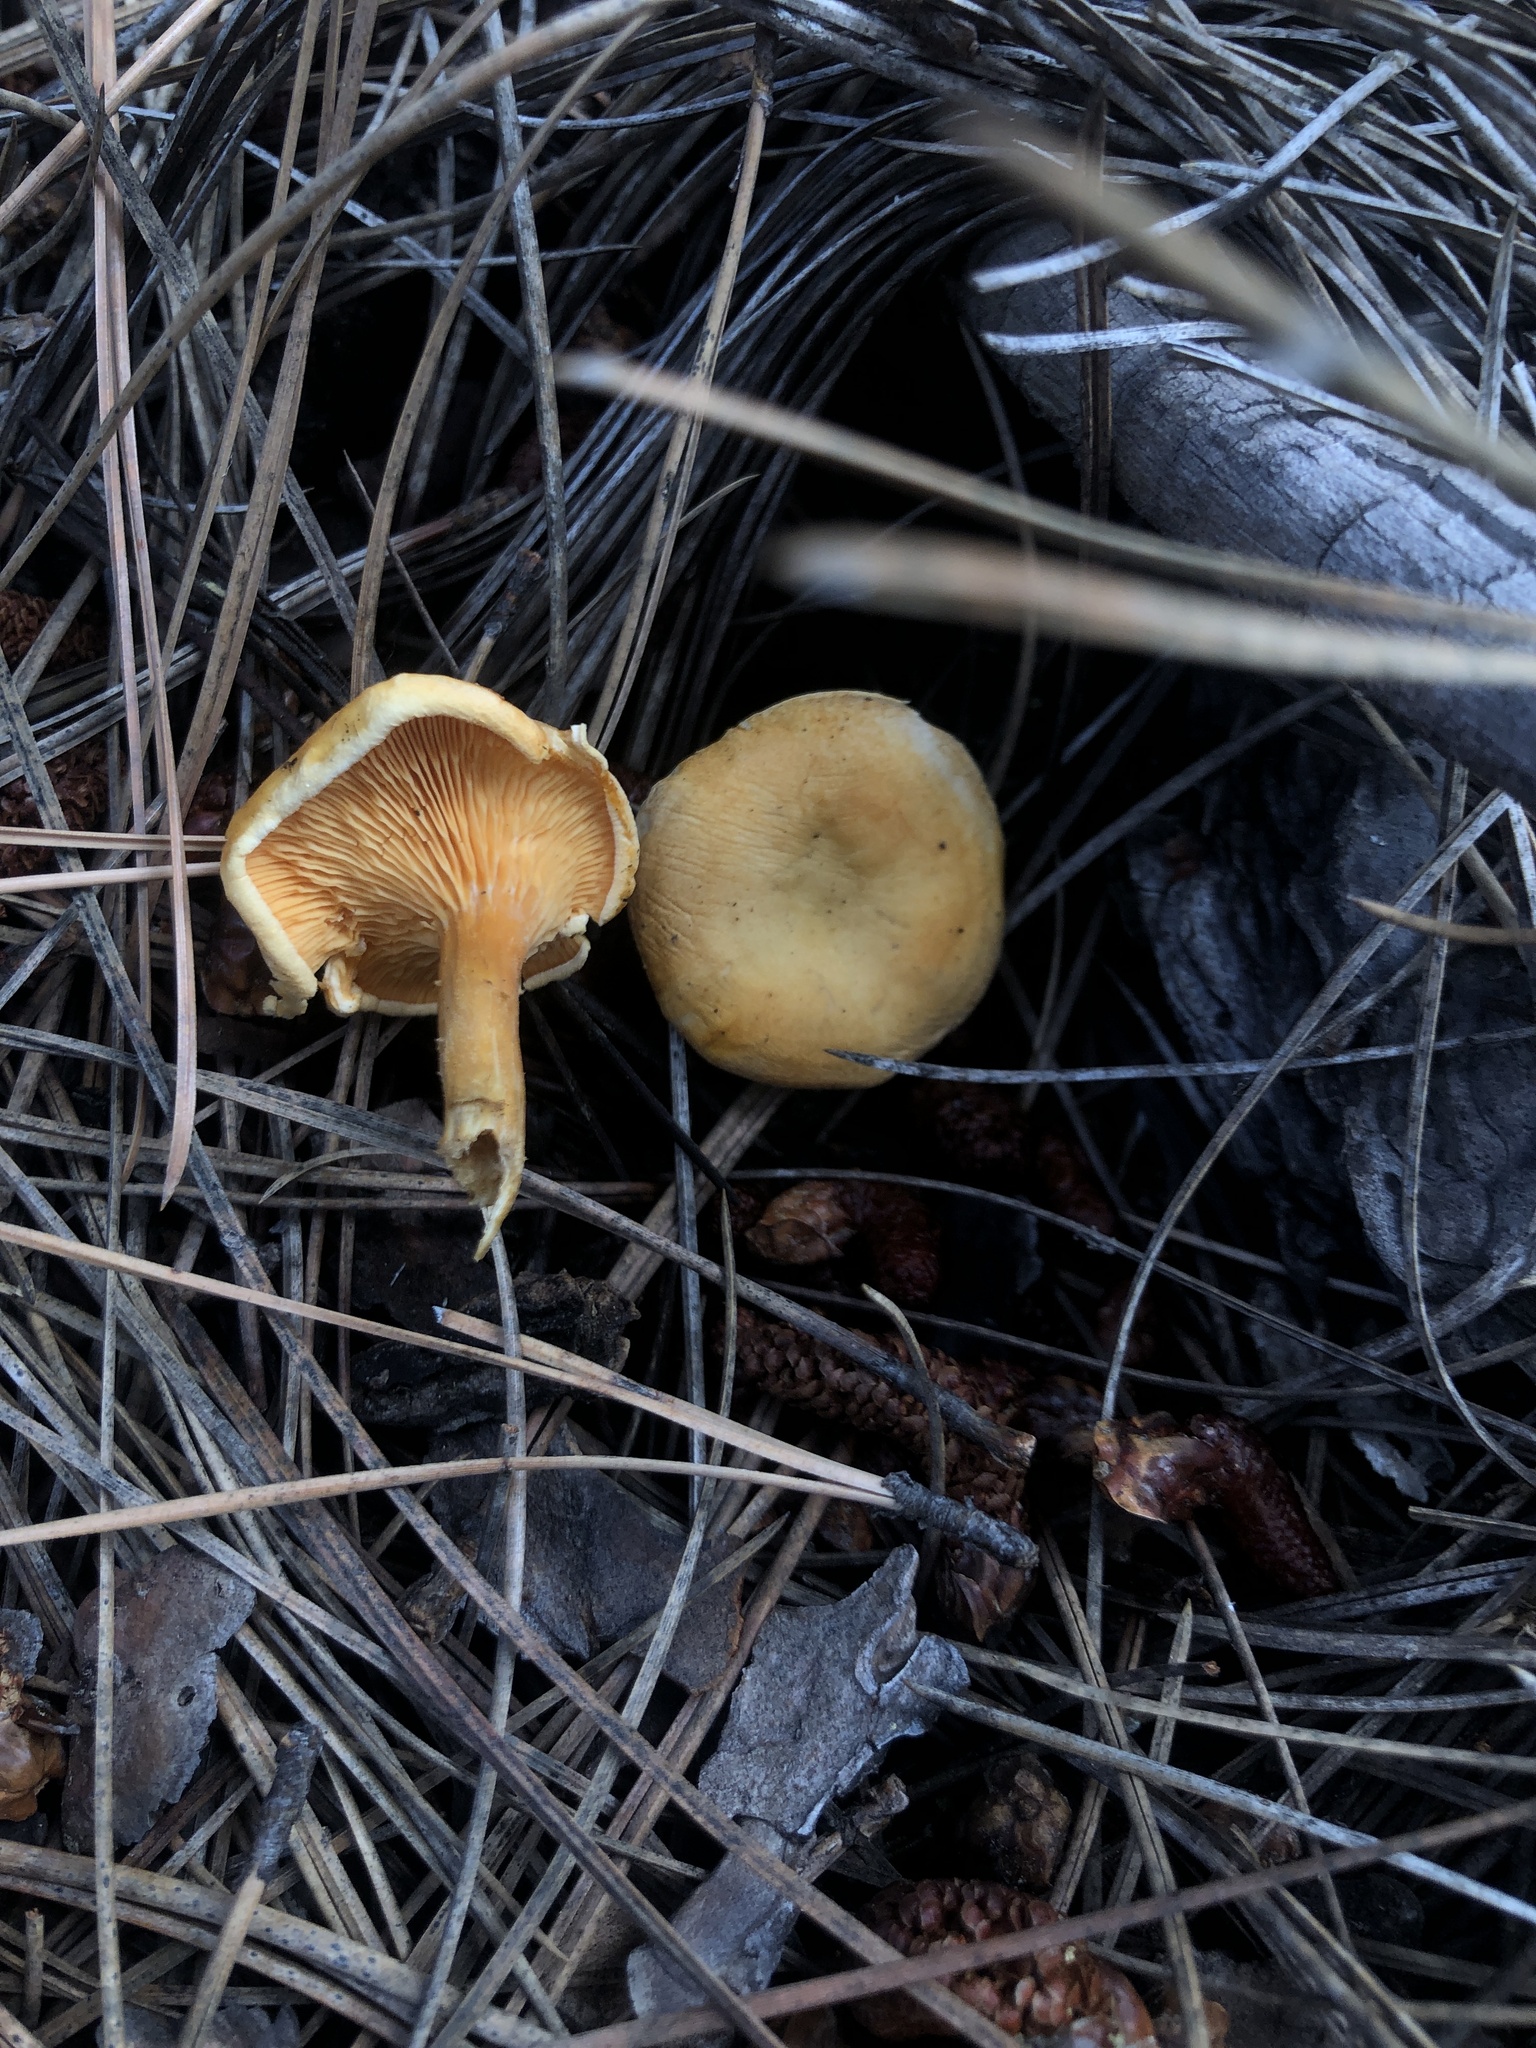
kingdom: Fungi
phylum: Basidiomycota
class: Agaricomycetes
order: Boletales
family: Hygrophoropsidaceae
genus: Hygrophoropsis
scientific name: Hygrophoropsis aurantiaca
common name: False chanterelle
